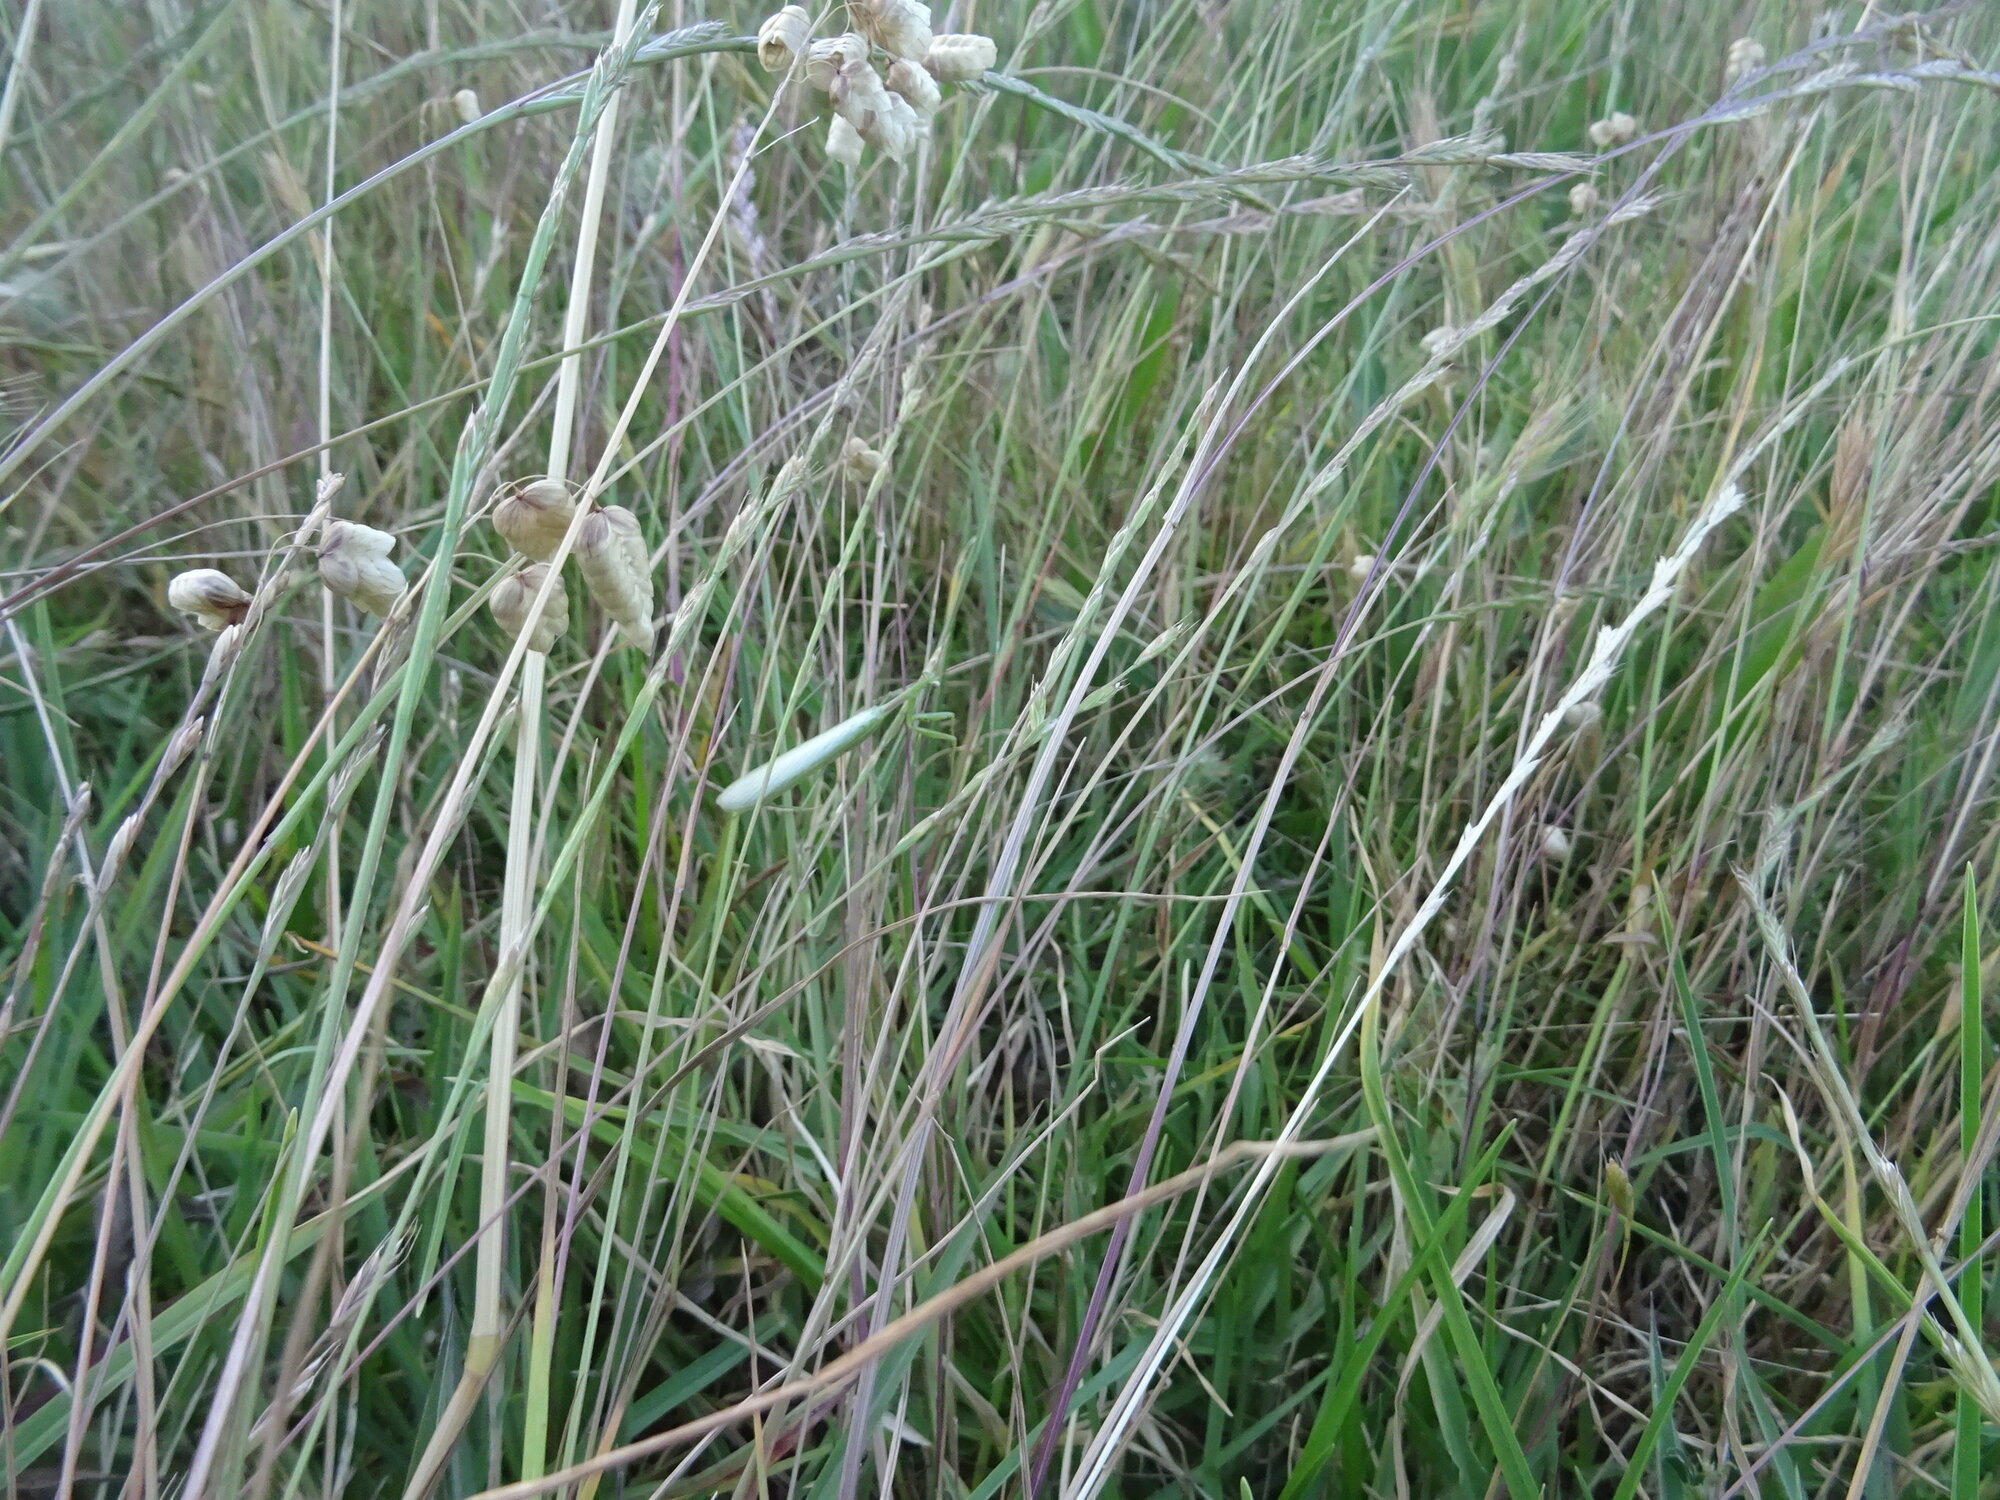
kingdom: Animalia
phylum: Arthropoda
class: Insecta
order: Mantodea
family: Miomantidae
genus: Miomantis
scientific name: Miomantis caffra
